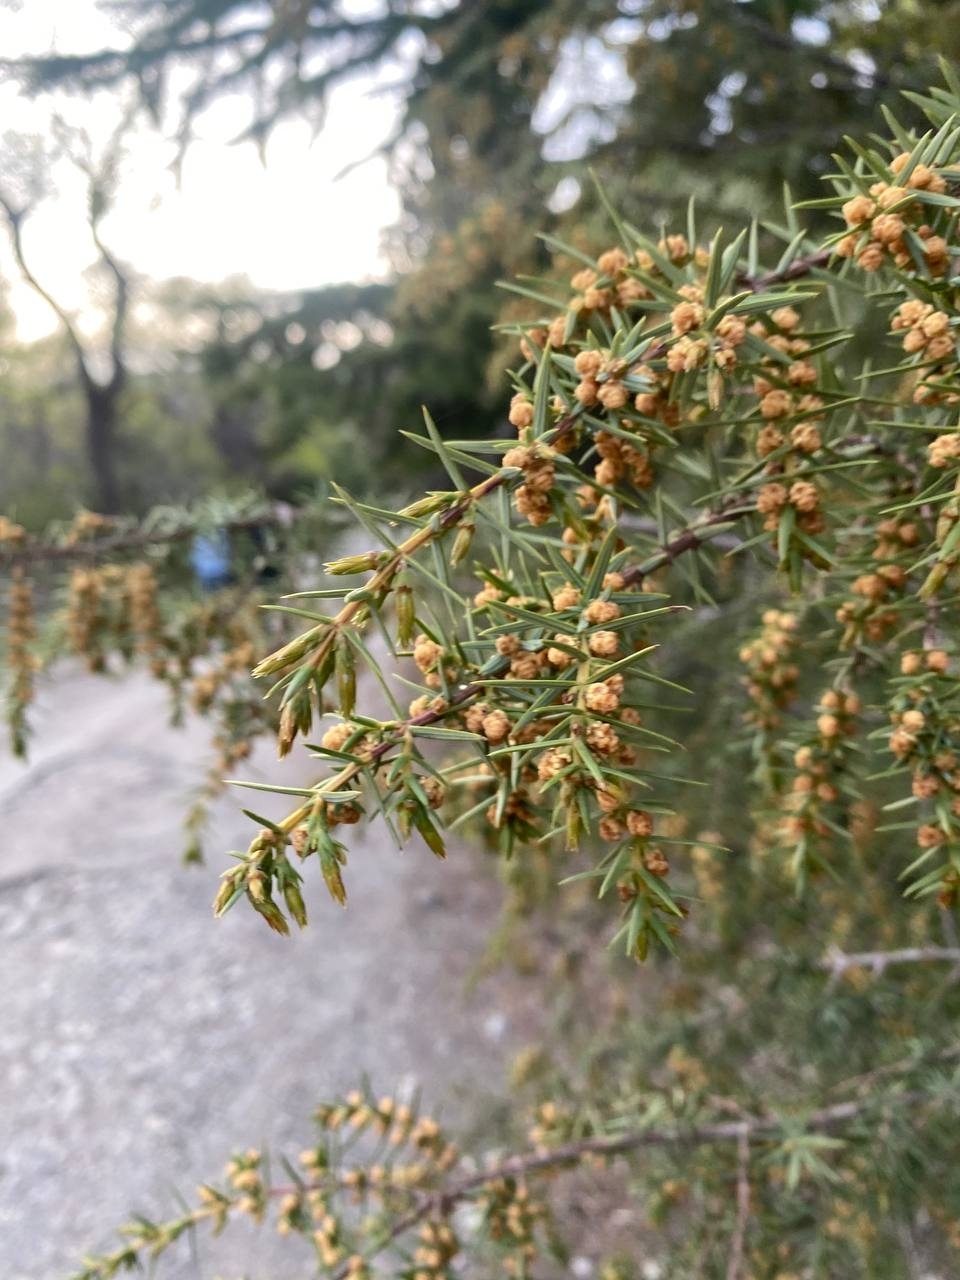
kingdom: Plantae
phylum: Tracheophyta
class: Pinopsida
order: Pinales
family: Cupressaceae
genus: Juniperus
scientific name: Juniperus oxycedrus
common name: Prickly juniper
